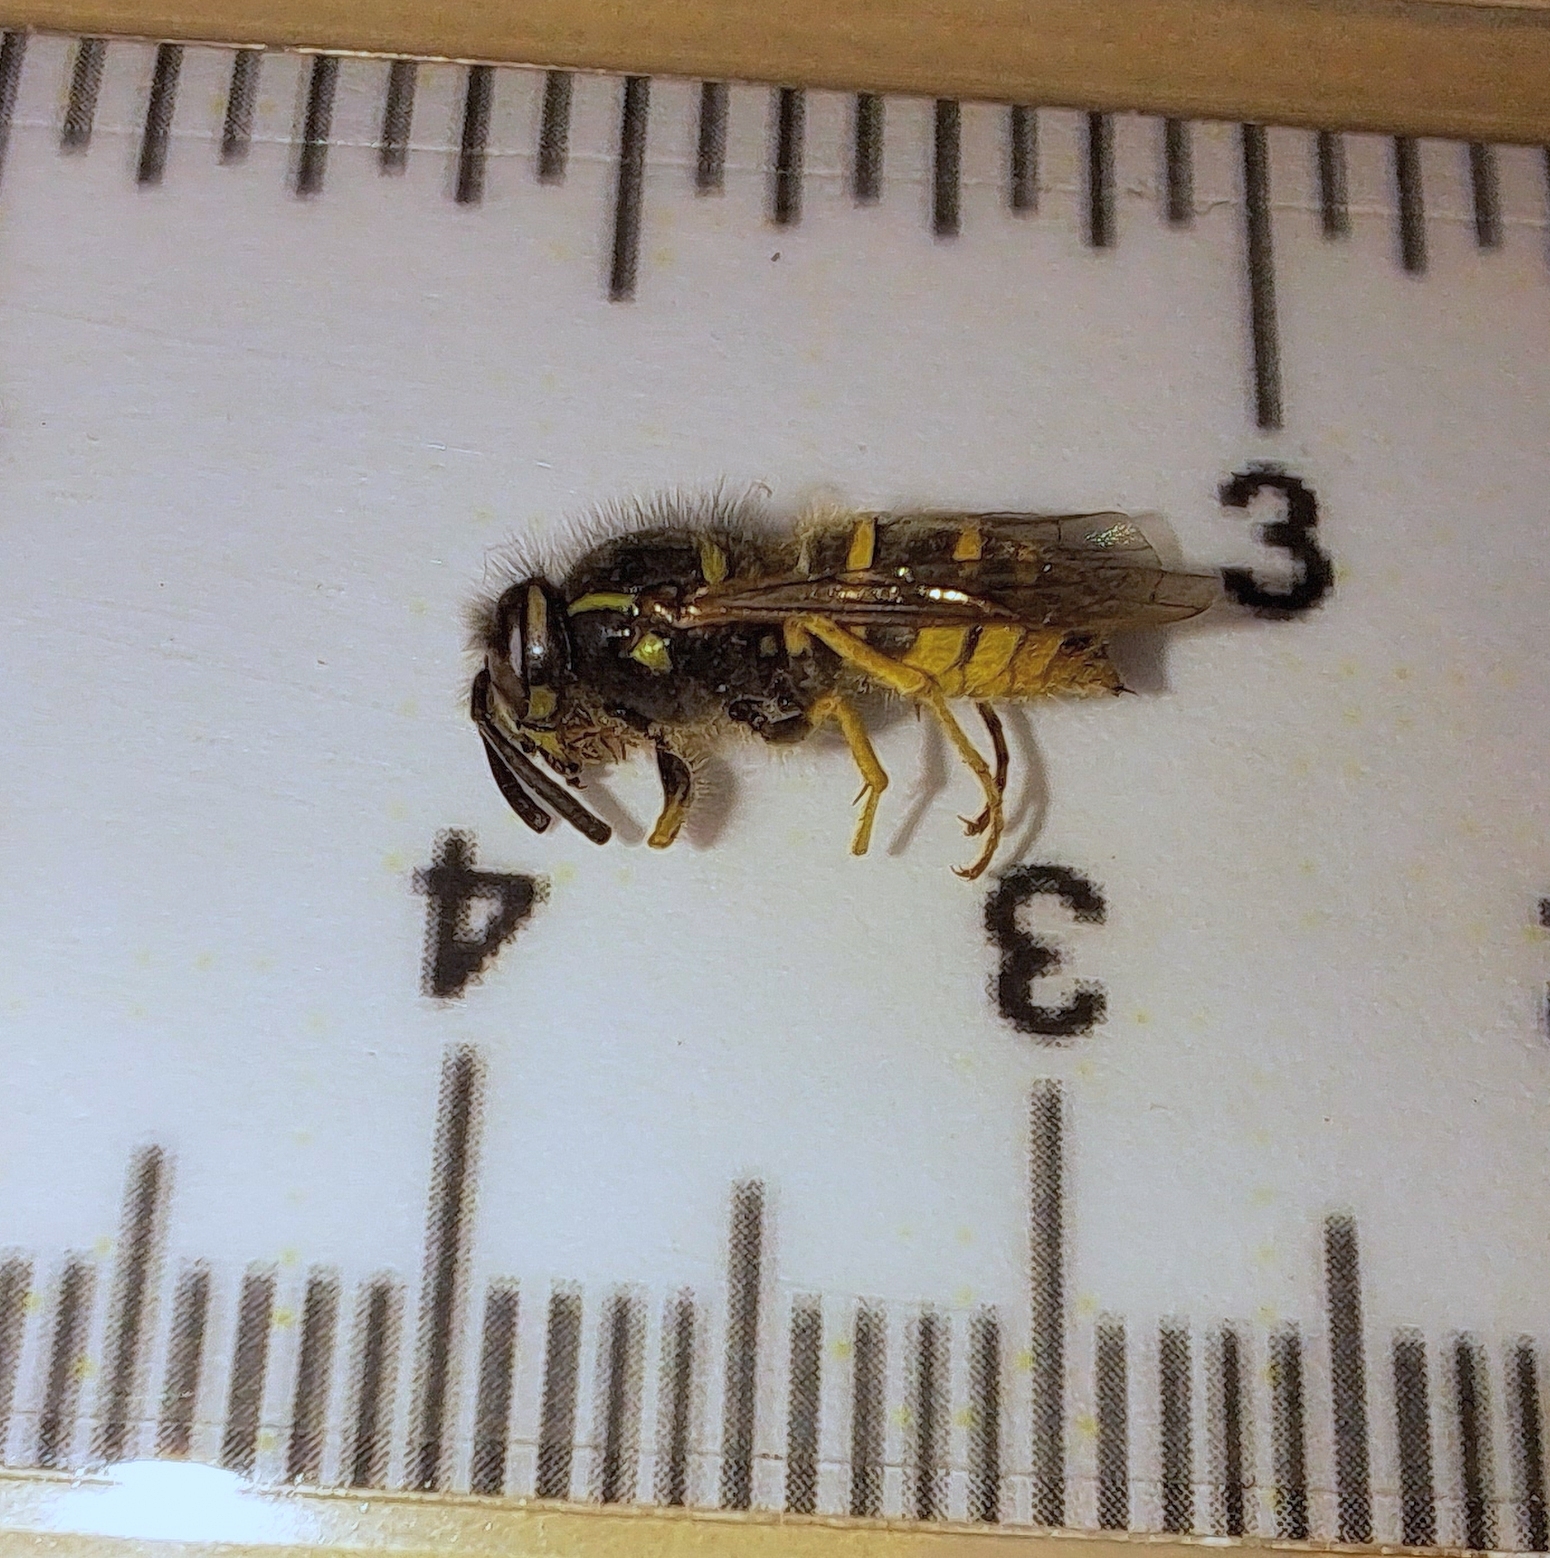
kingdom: Animalia
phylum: Arthropoda
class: Insecta
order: Hymenoptera
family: Vespidae
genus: Vespula
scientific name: Vespula vulgaris
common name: Common wasp
